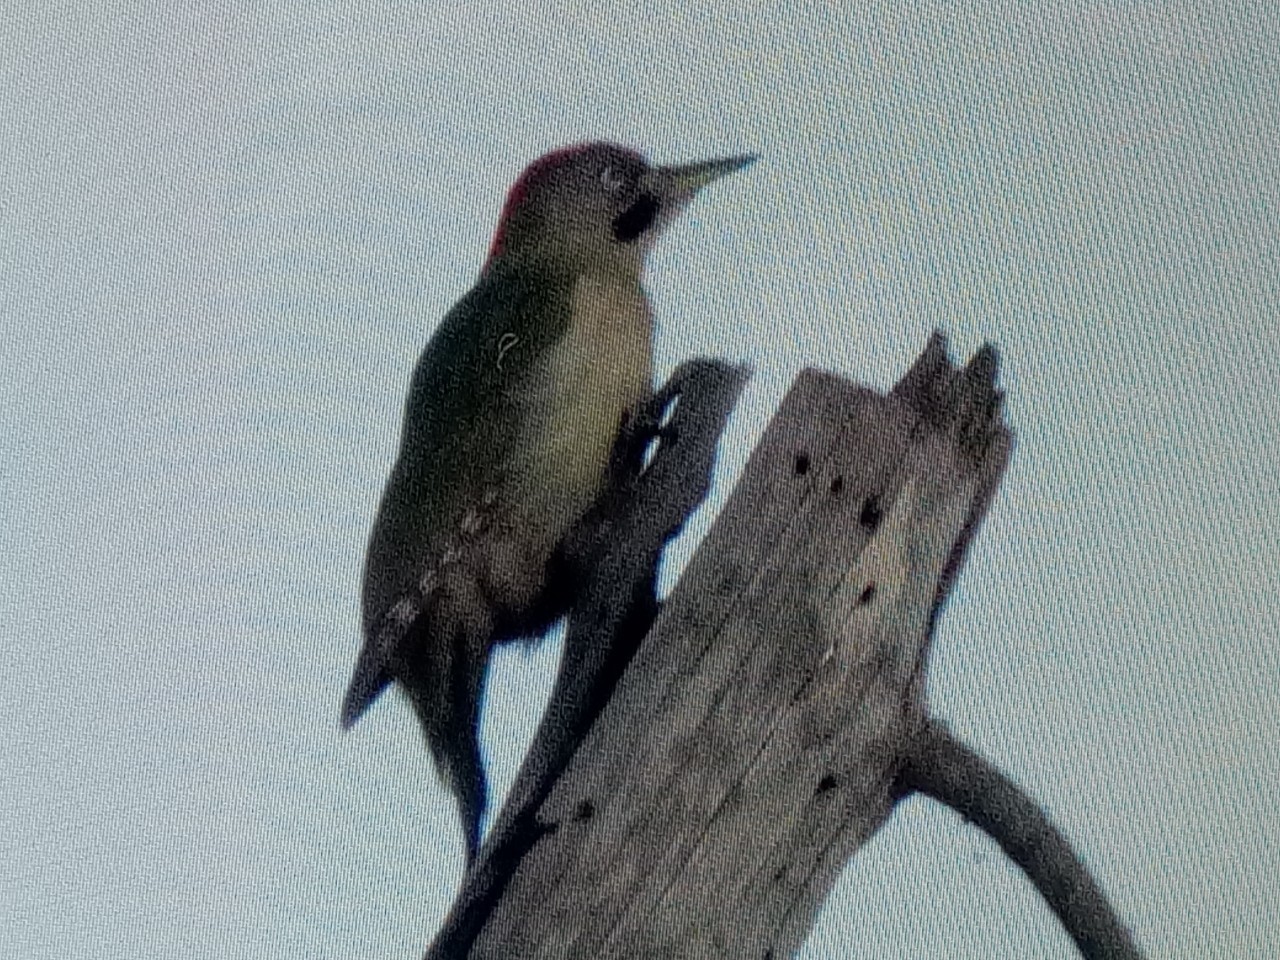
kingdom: Animalia
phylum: Chordata
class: Aves
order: Piciformes
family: Picidae
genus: Picus
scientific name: Picus vaillantii
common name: Levaillant's woodpecker
